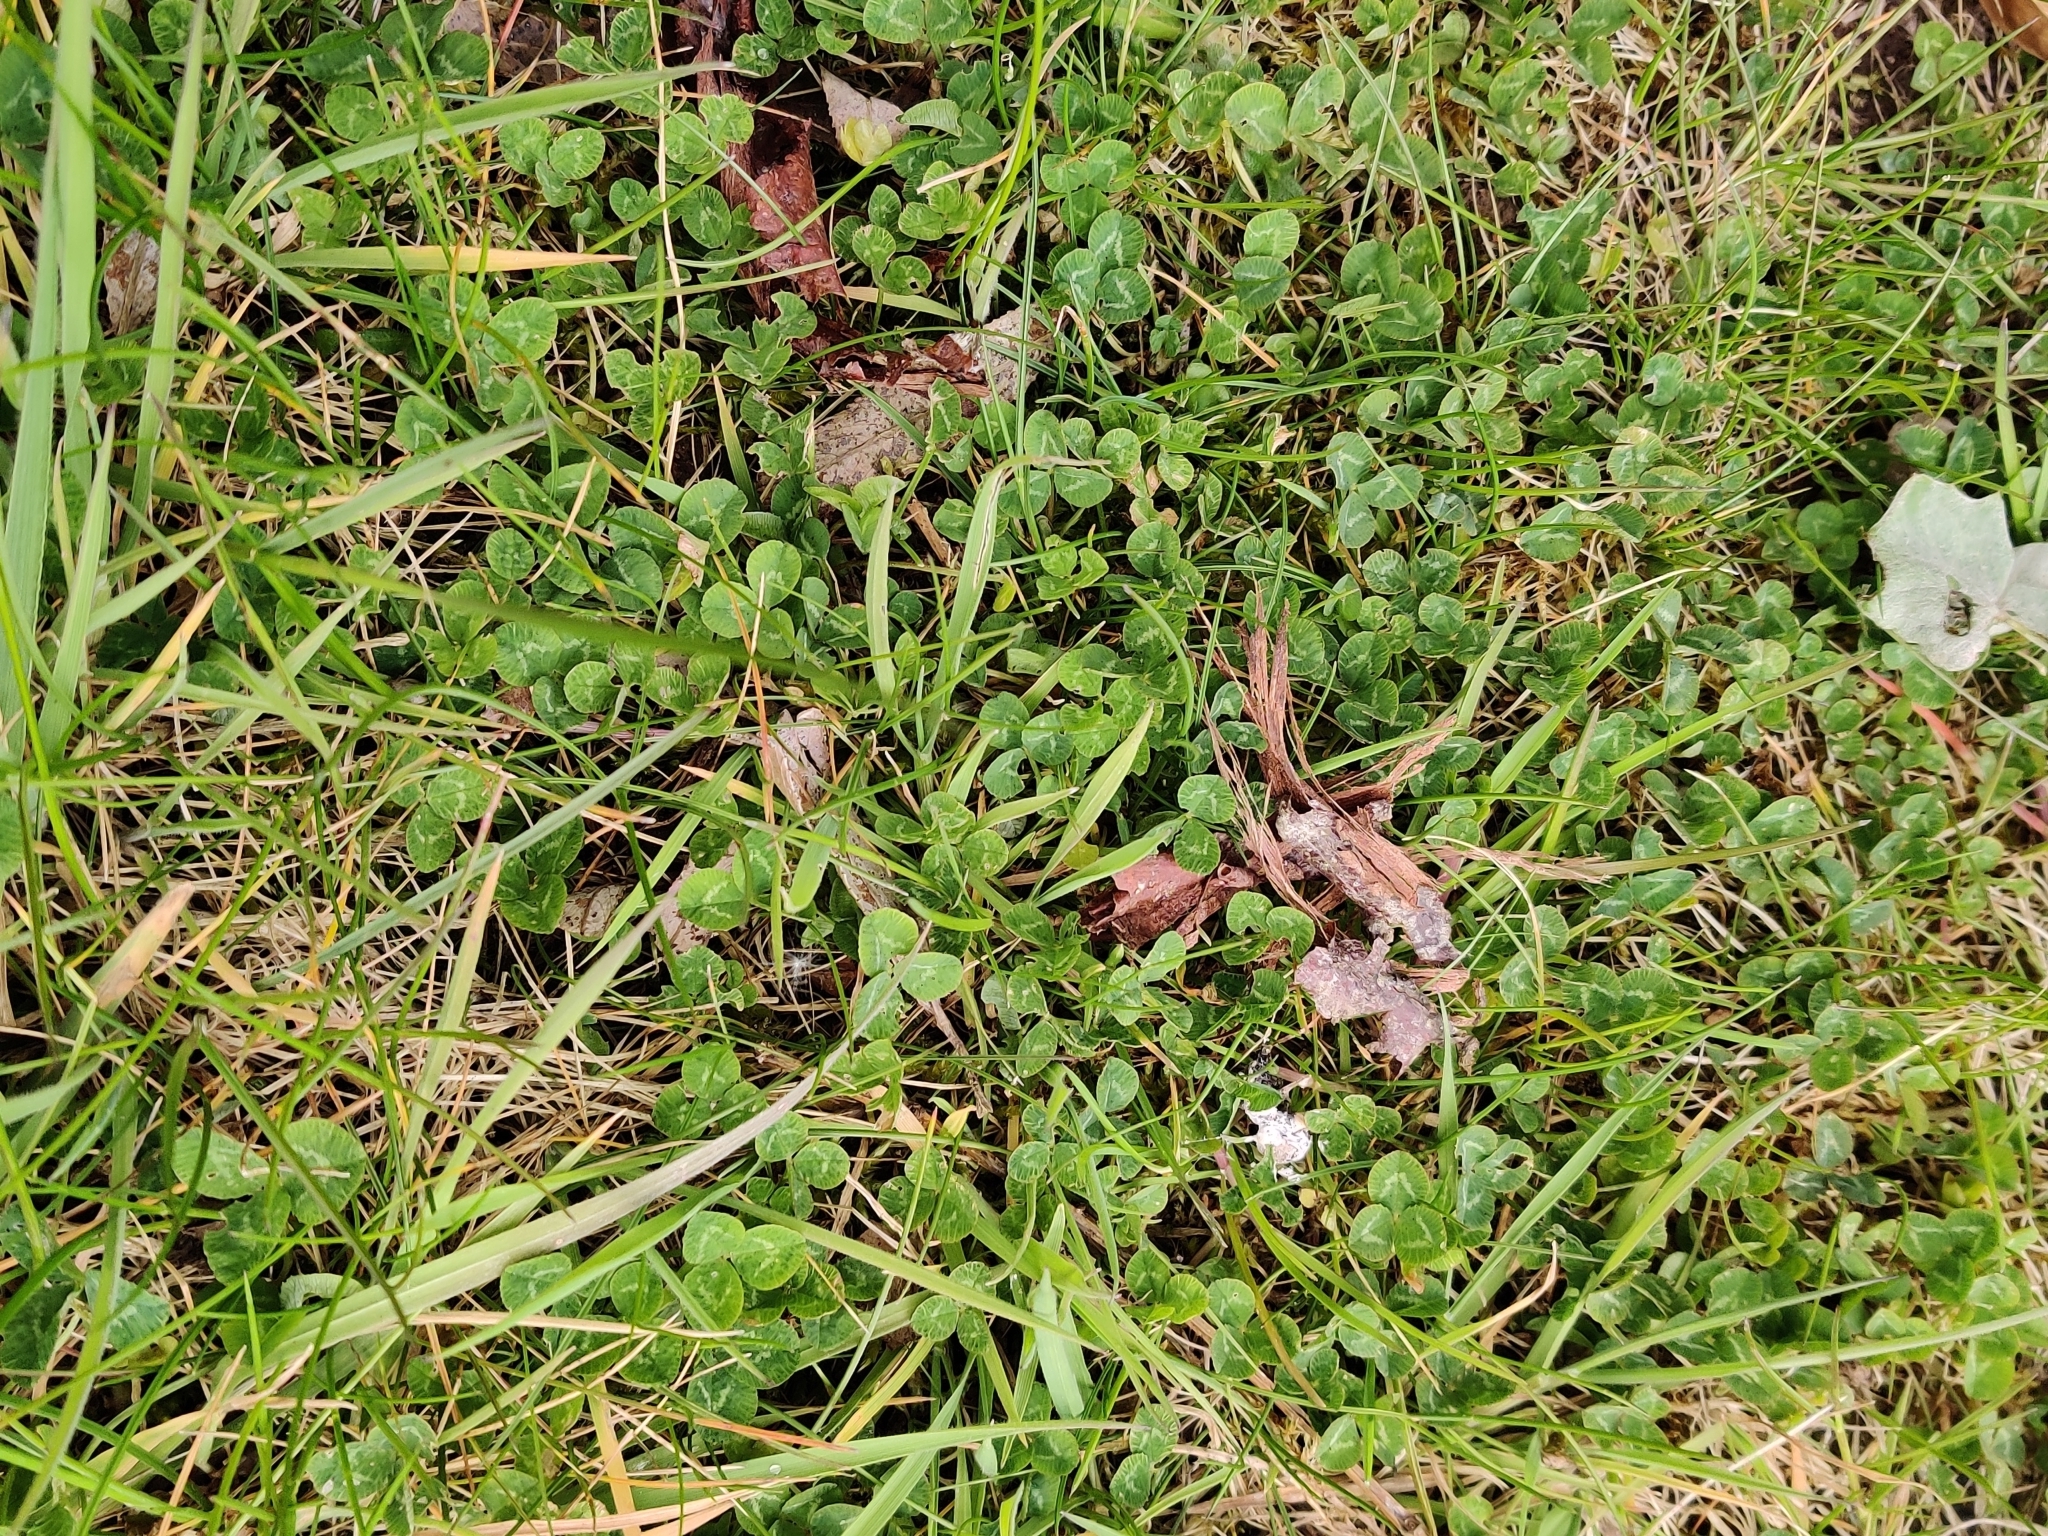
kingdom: Plantae
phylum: Tracheophyta
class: Magnoliopsida
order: Fabales
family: Fabaceae
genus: Trifolium
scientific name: Trifolium repens
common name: White clover
